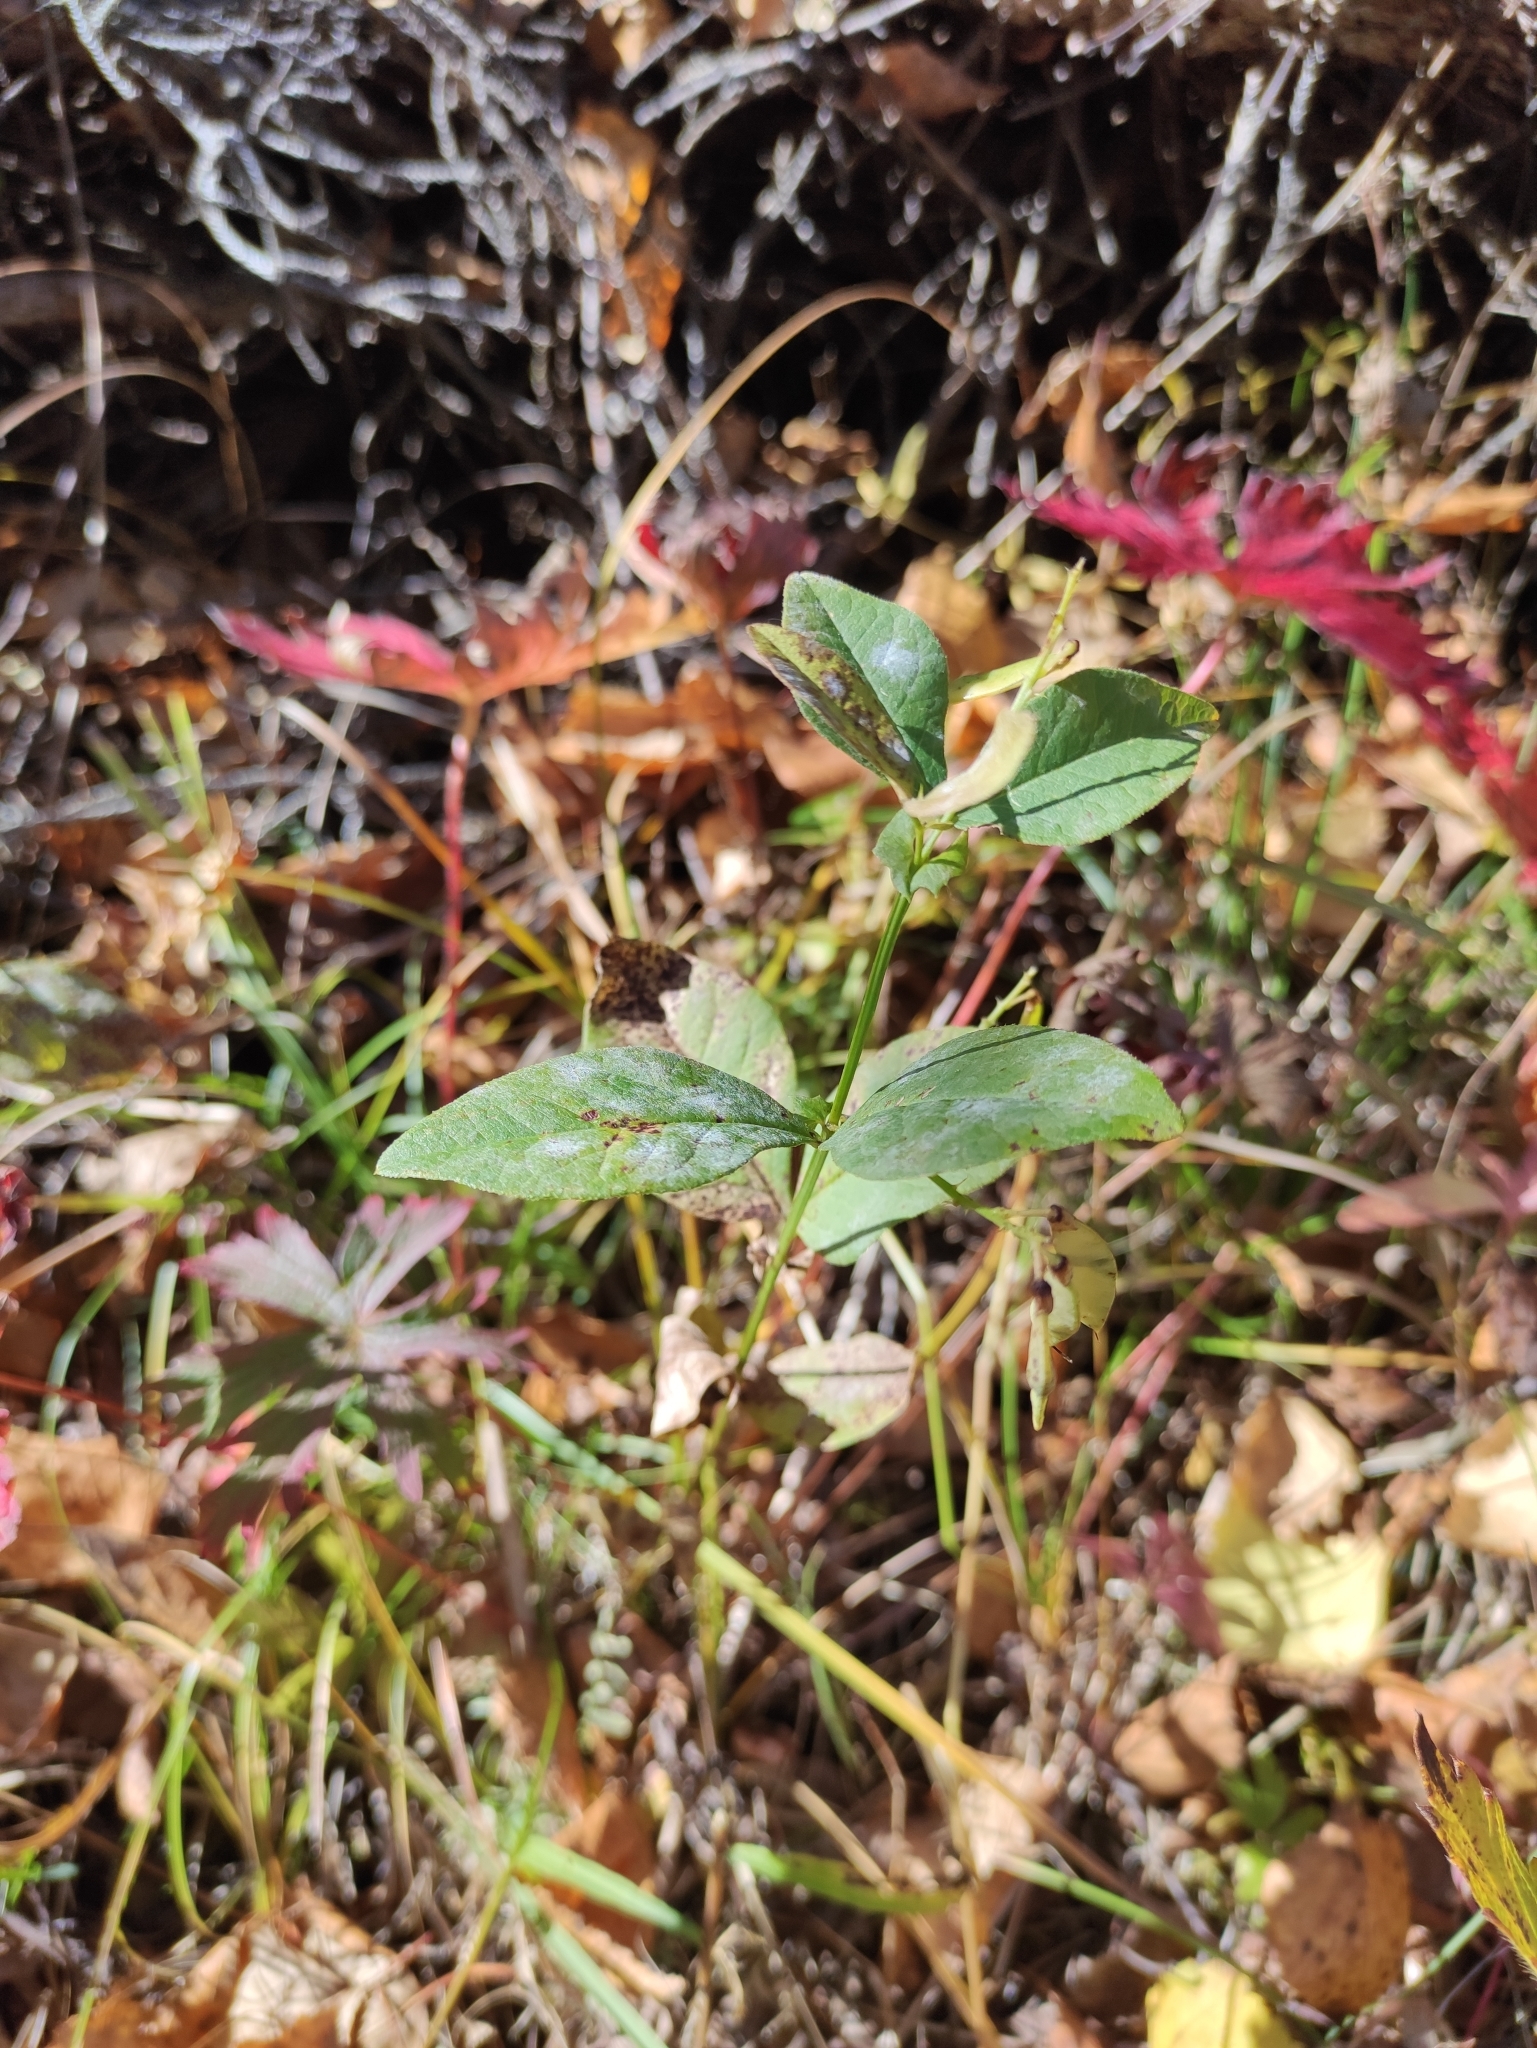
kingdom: Plantae
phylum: Tracheophyta
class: Magnoliopsida
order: Fabales
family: Fabaceae
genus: Vicia
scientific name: Vicia unijuga
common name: Two-leaf vetch
